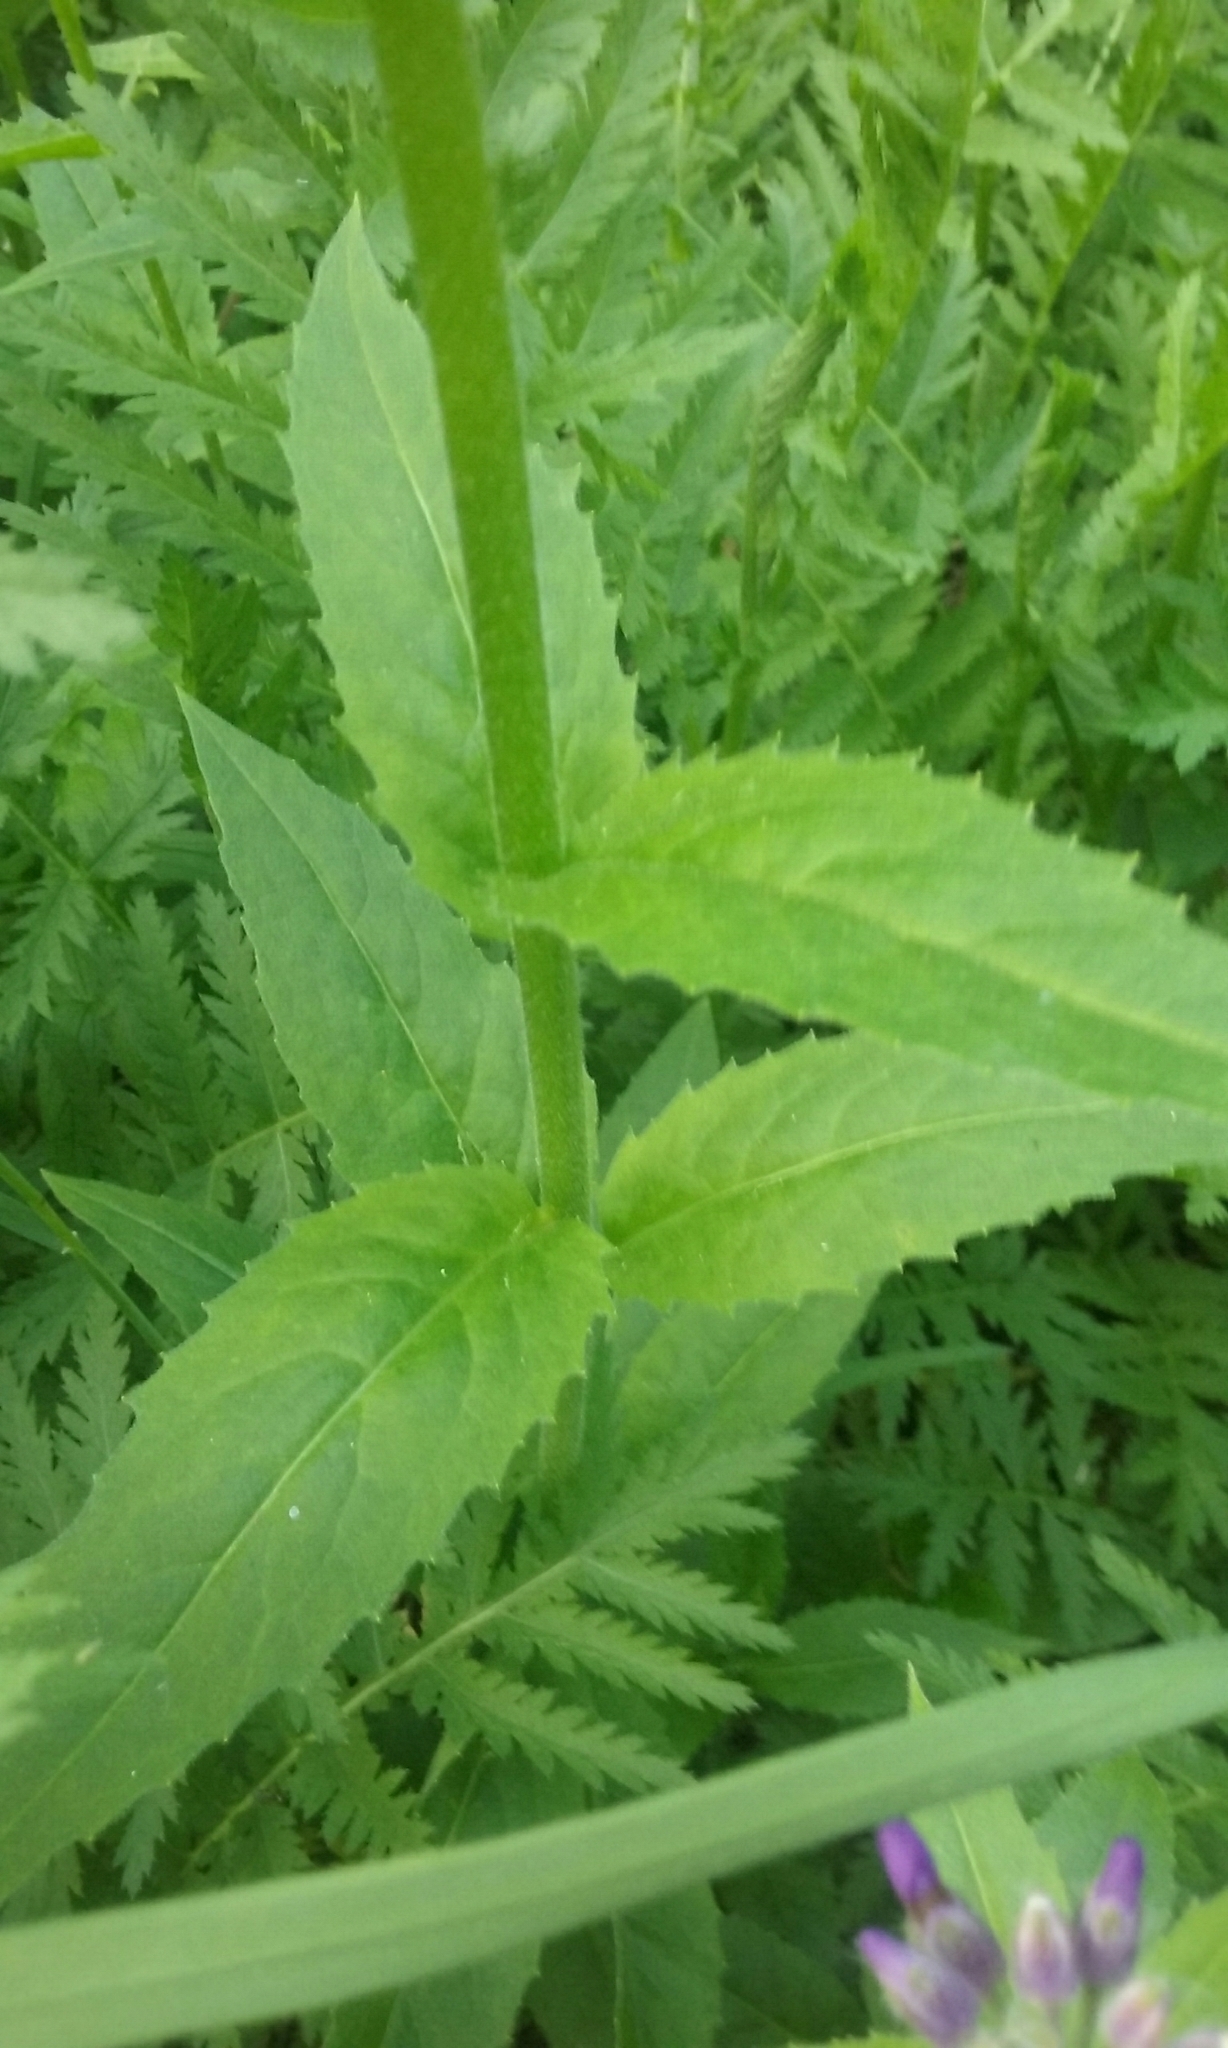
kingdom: Plantae
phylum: Tracheophyta
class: Magnoliopsida
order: Brassicales
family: Brassicaceae
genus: Hesperis
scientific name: Hesperis matronalis
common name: Dame's-violet
